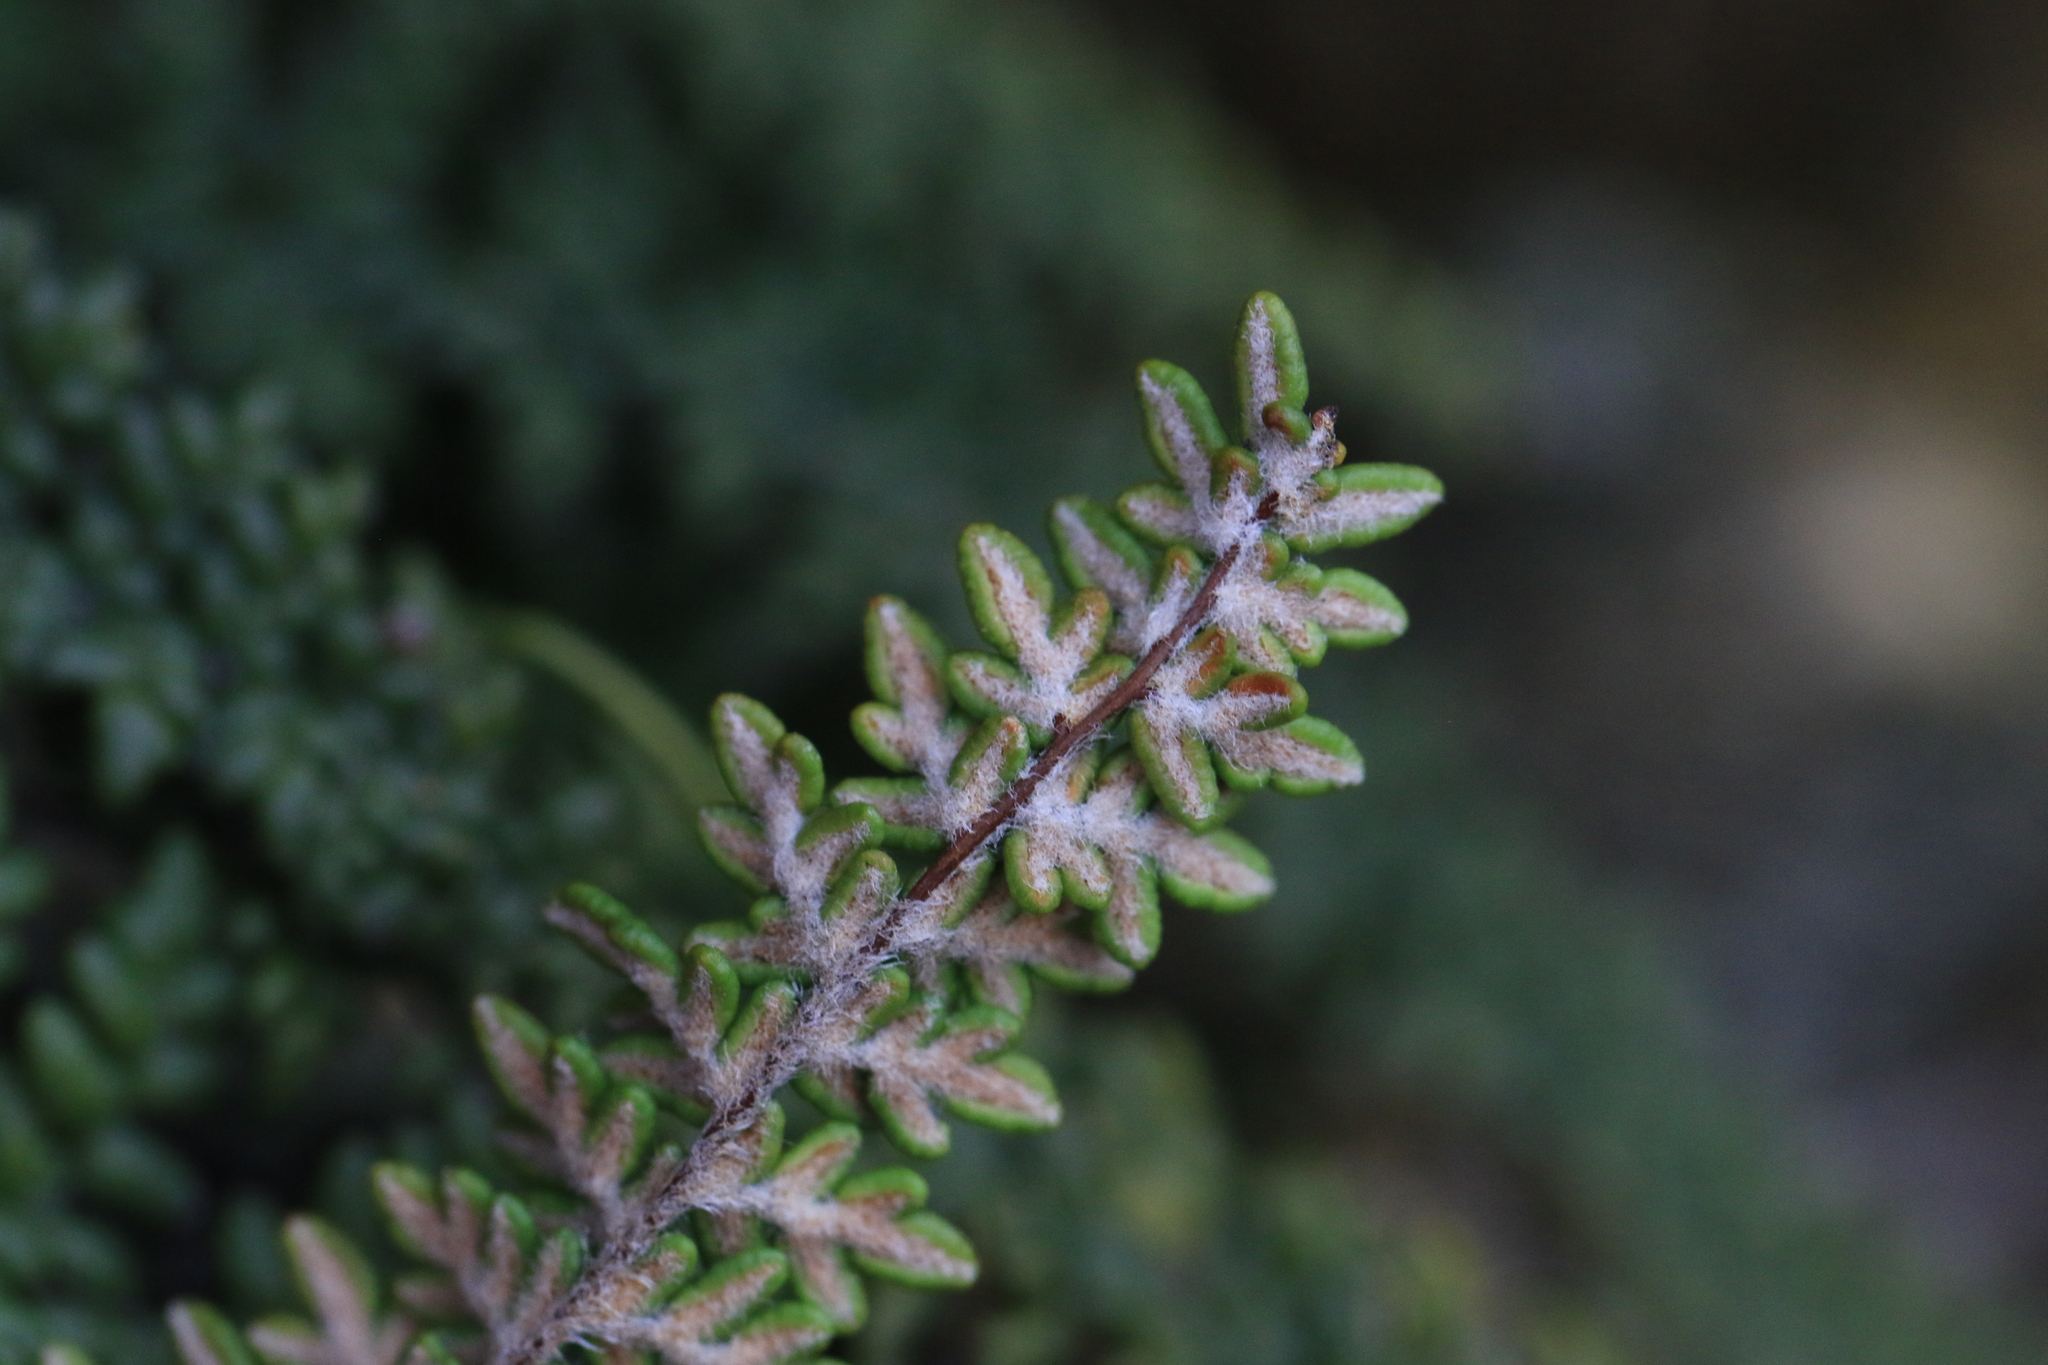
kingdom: Plantae
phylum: Tracheophyta
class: Polypodiopsida
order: Polypodiales
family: Pteridaceae
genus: Myriopteris
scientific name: Myriopteris gracillima
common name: Lace fern
